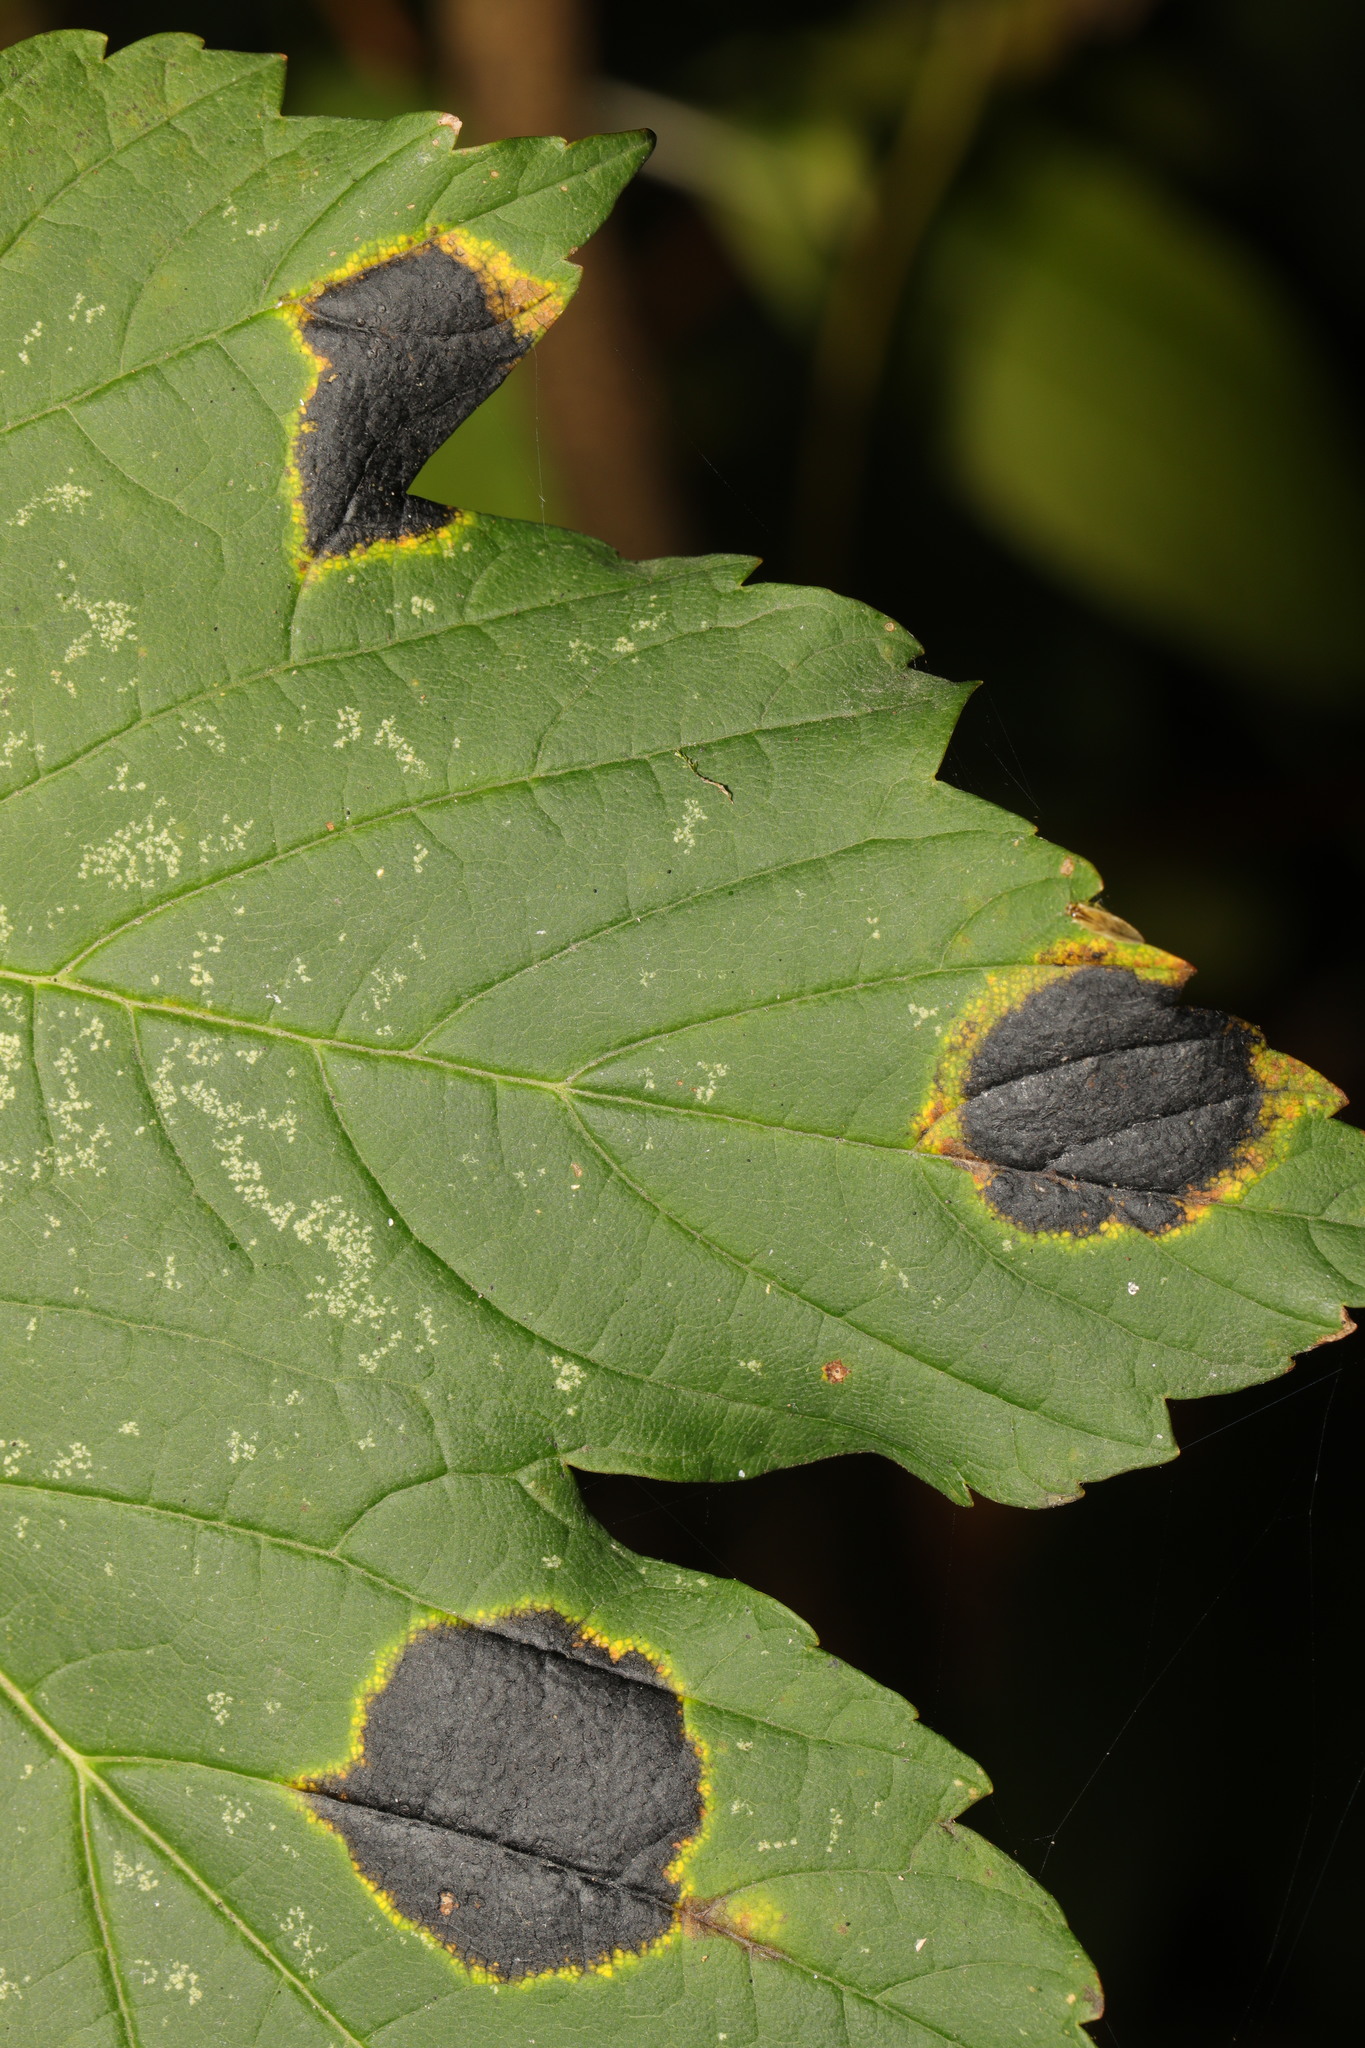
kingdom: Fungi
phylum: Ascomycota
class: Leotiomycetes
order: Rhytismatales
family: Rhytismataceae
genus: Rhytisma
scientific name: Rhytisma acerinum
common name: European tar spot
